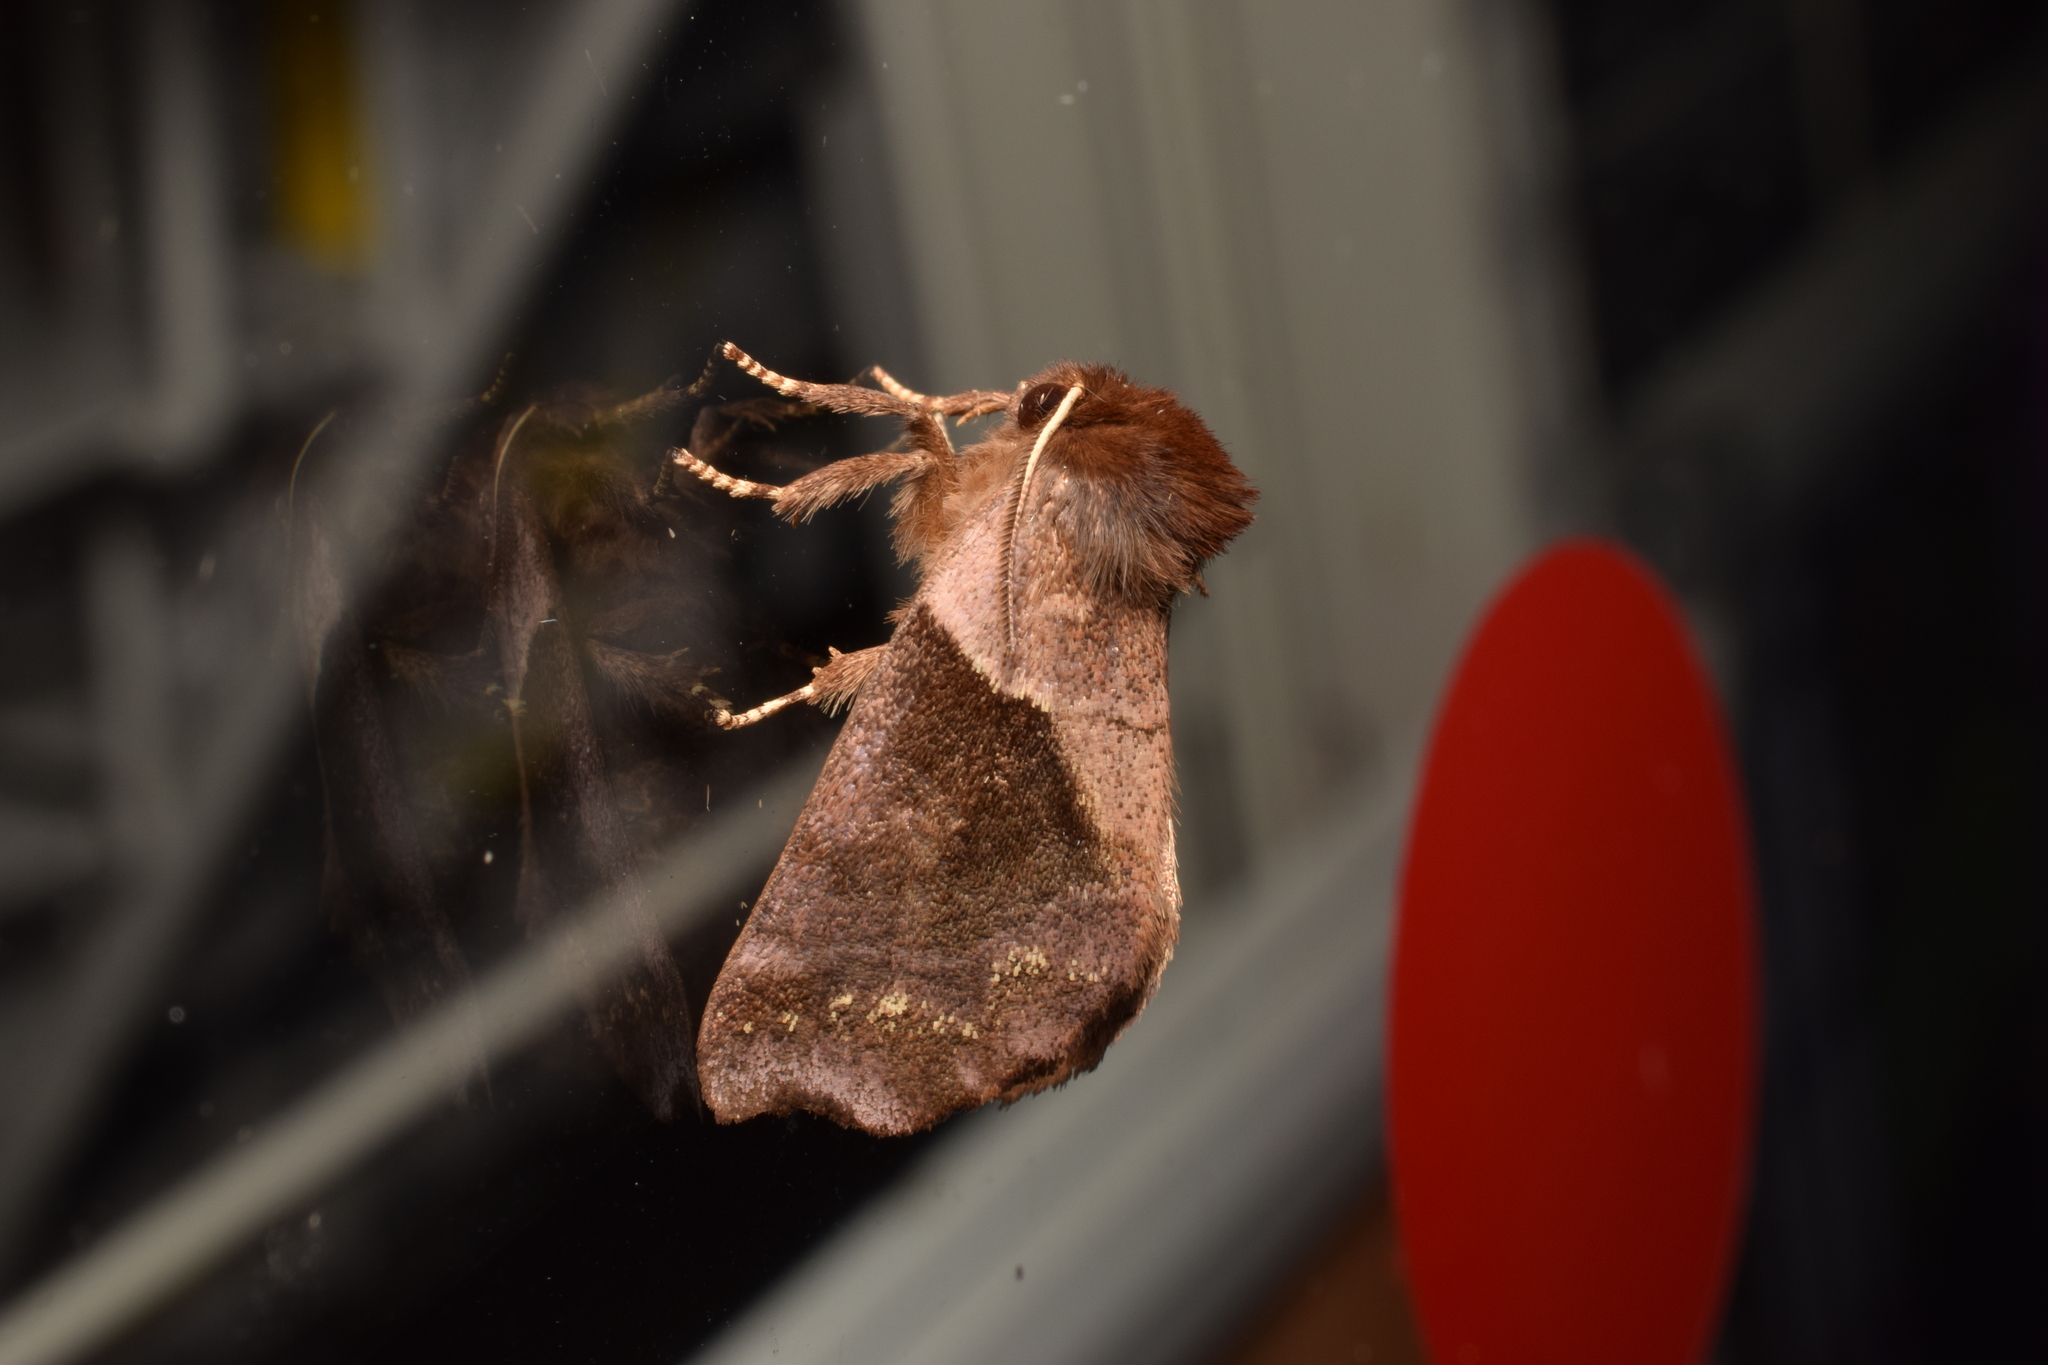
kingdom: Animalia
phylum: Arthropoda
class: Insecta
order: Lepidoptera
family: Notodontidae
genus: Gonoclostera
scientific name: Gonoclostera timoniorum
